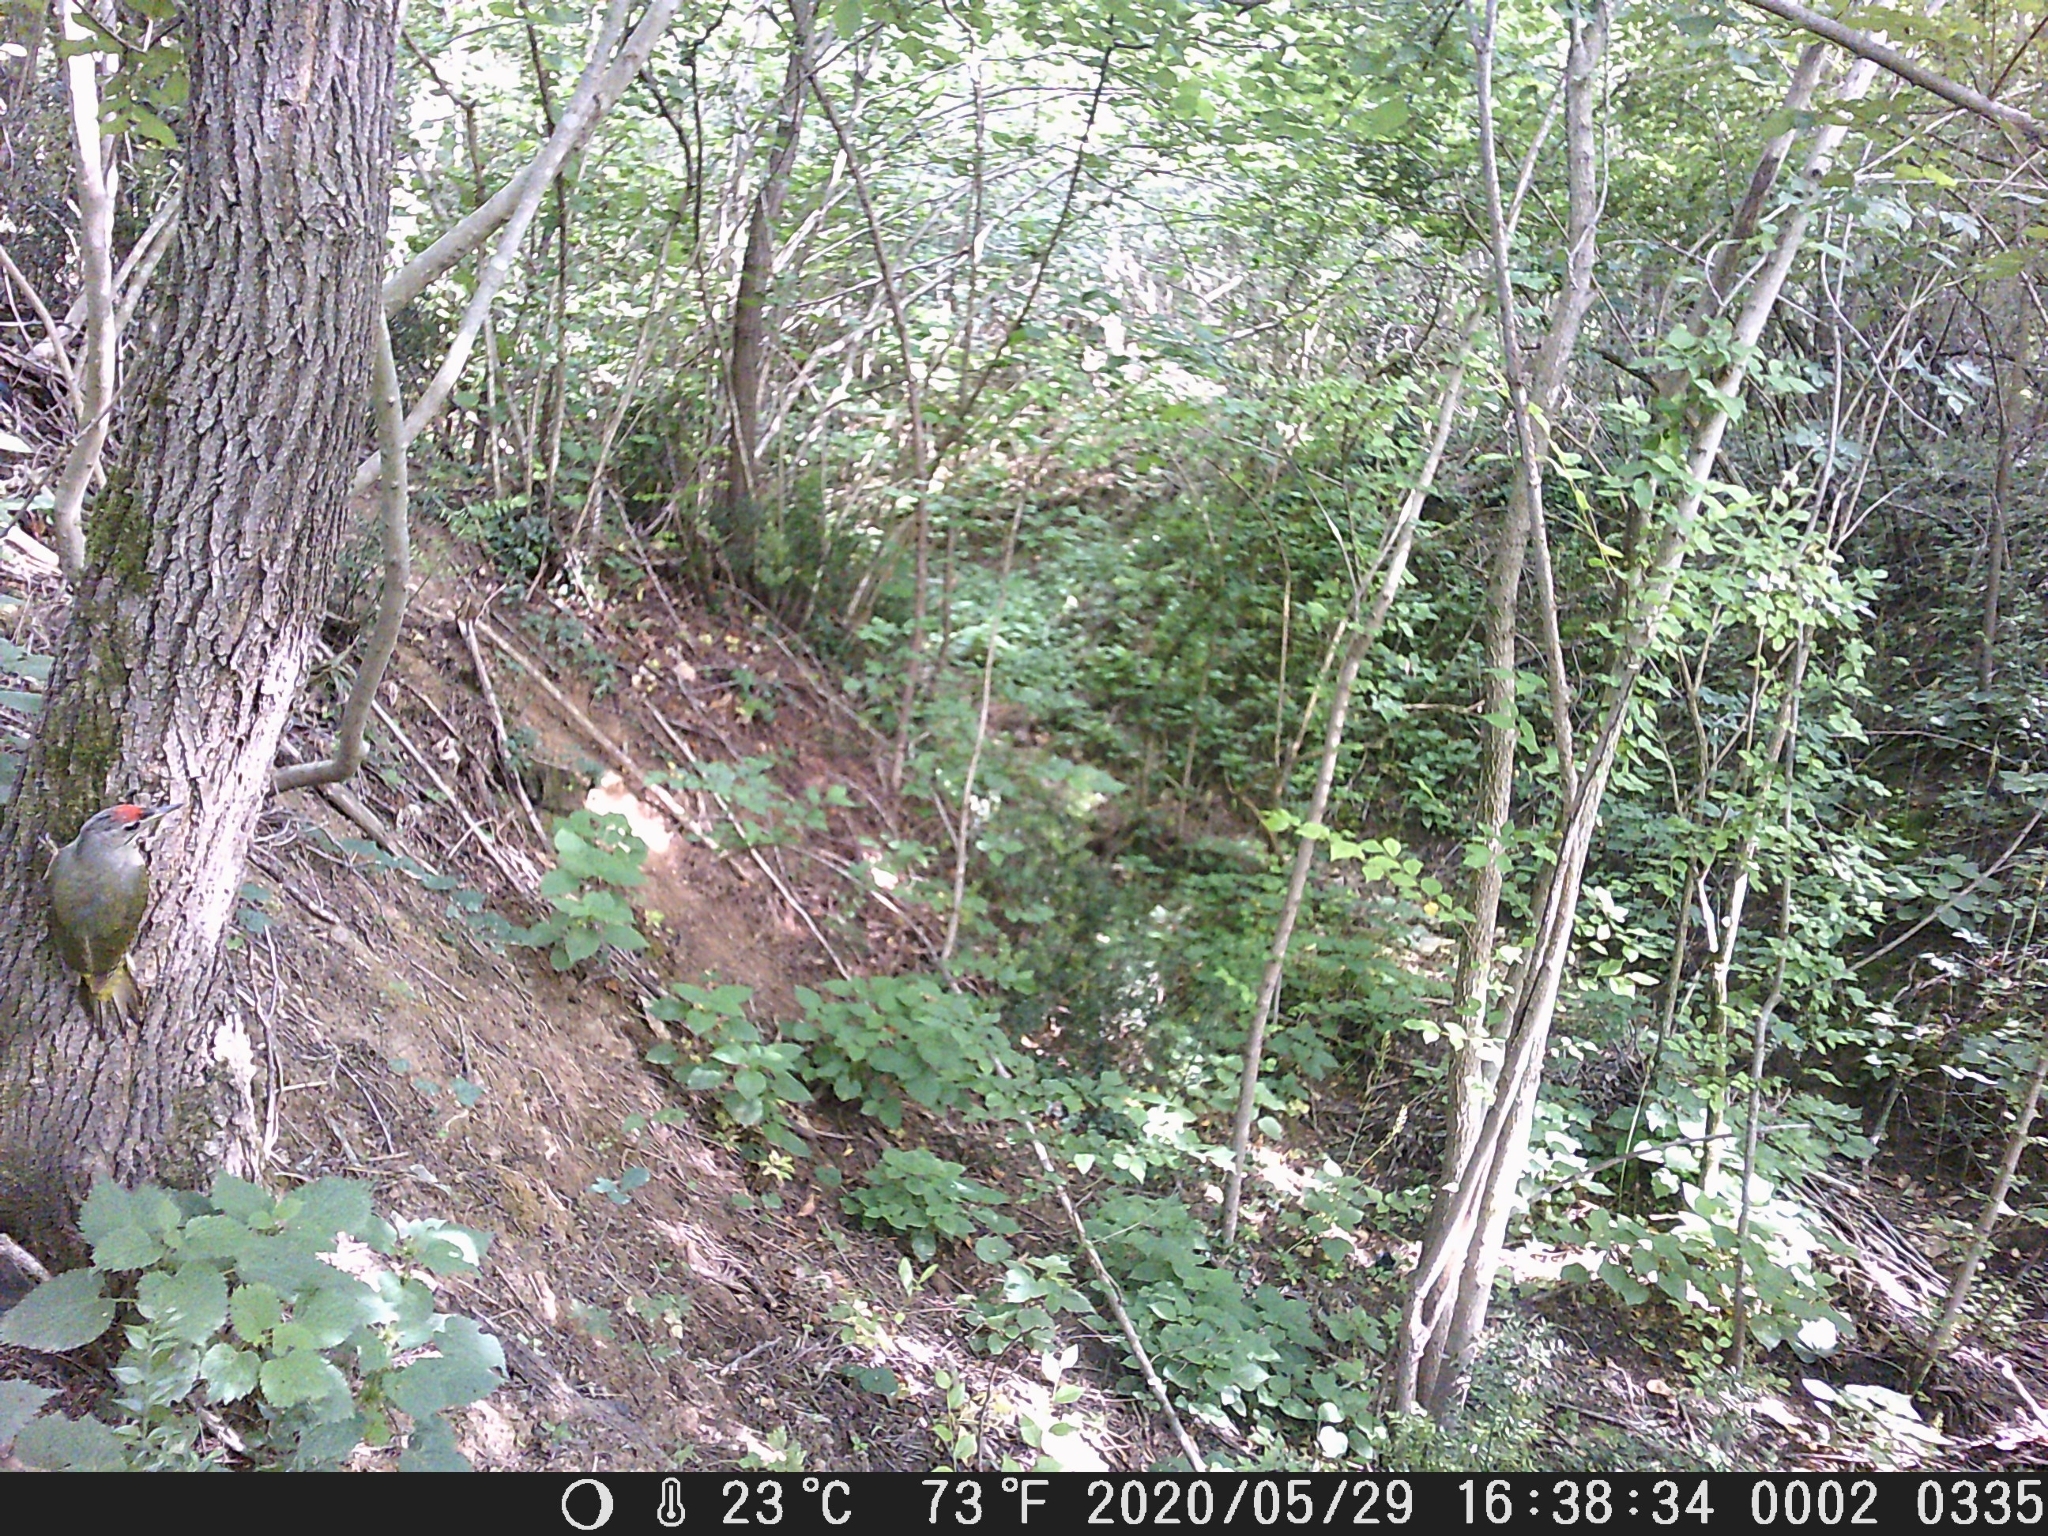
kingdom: Animalia
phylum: Chordata
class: Aves
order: Piciformes
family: Picidae
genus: Picus
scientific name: Picus canus
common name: Grey-headed woodpecker
